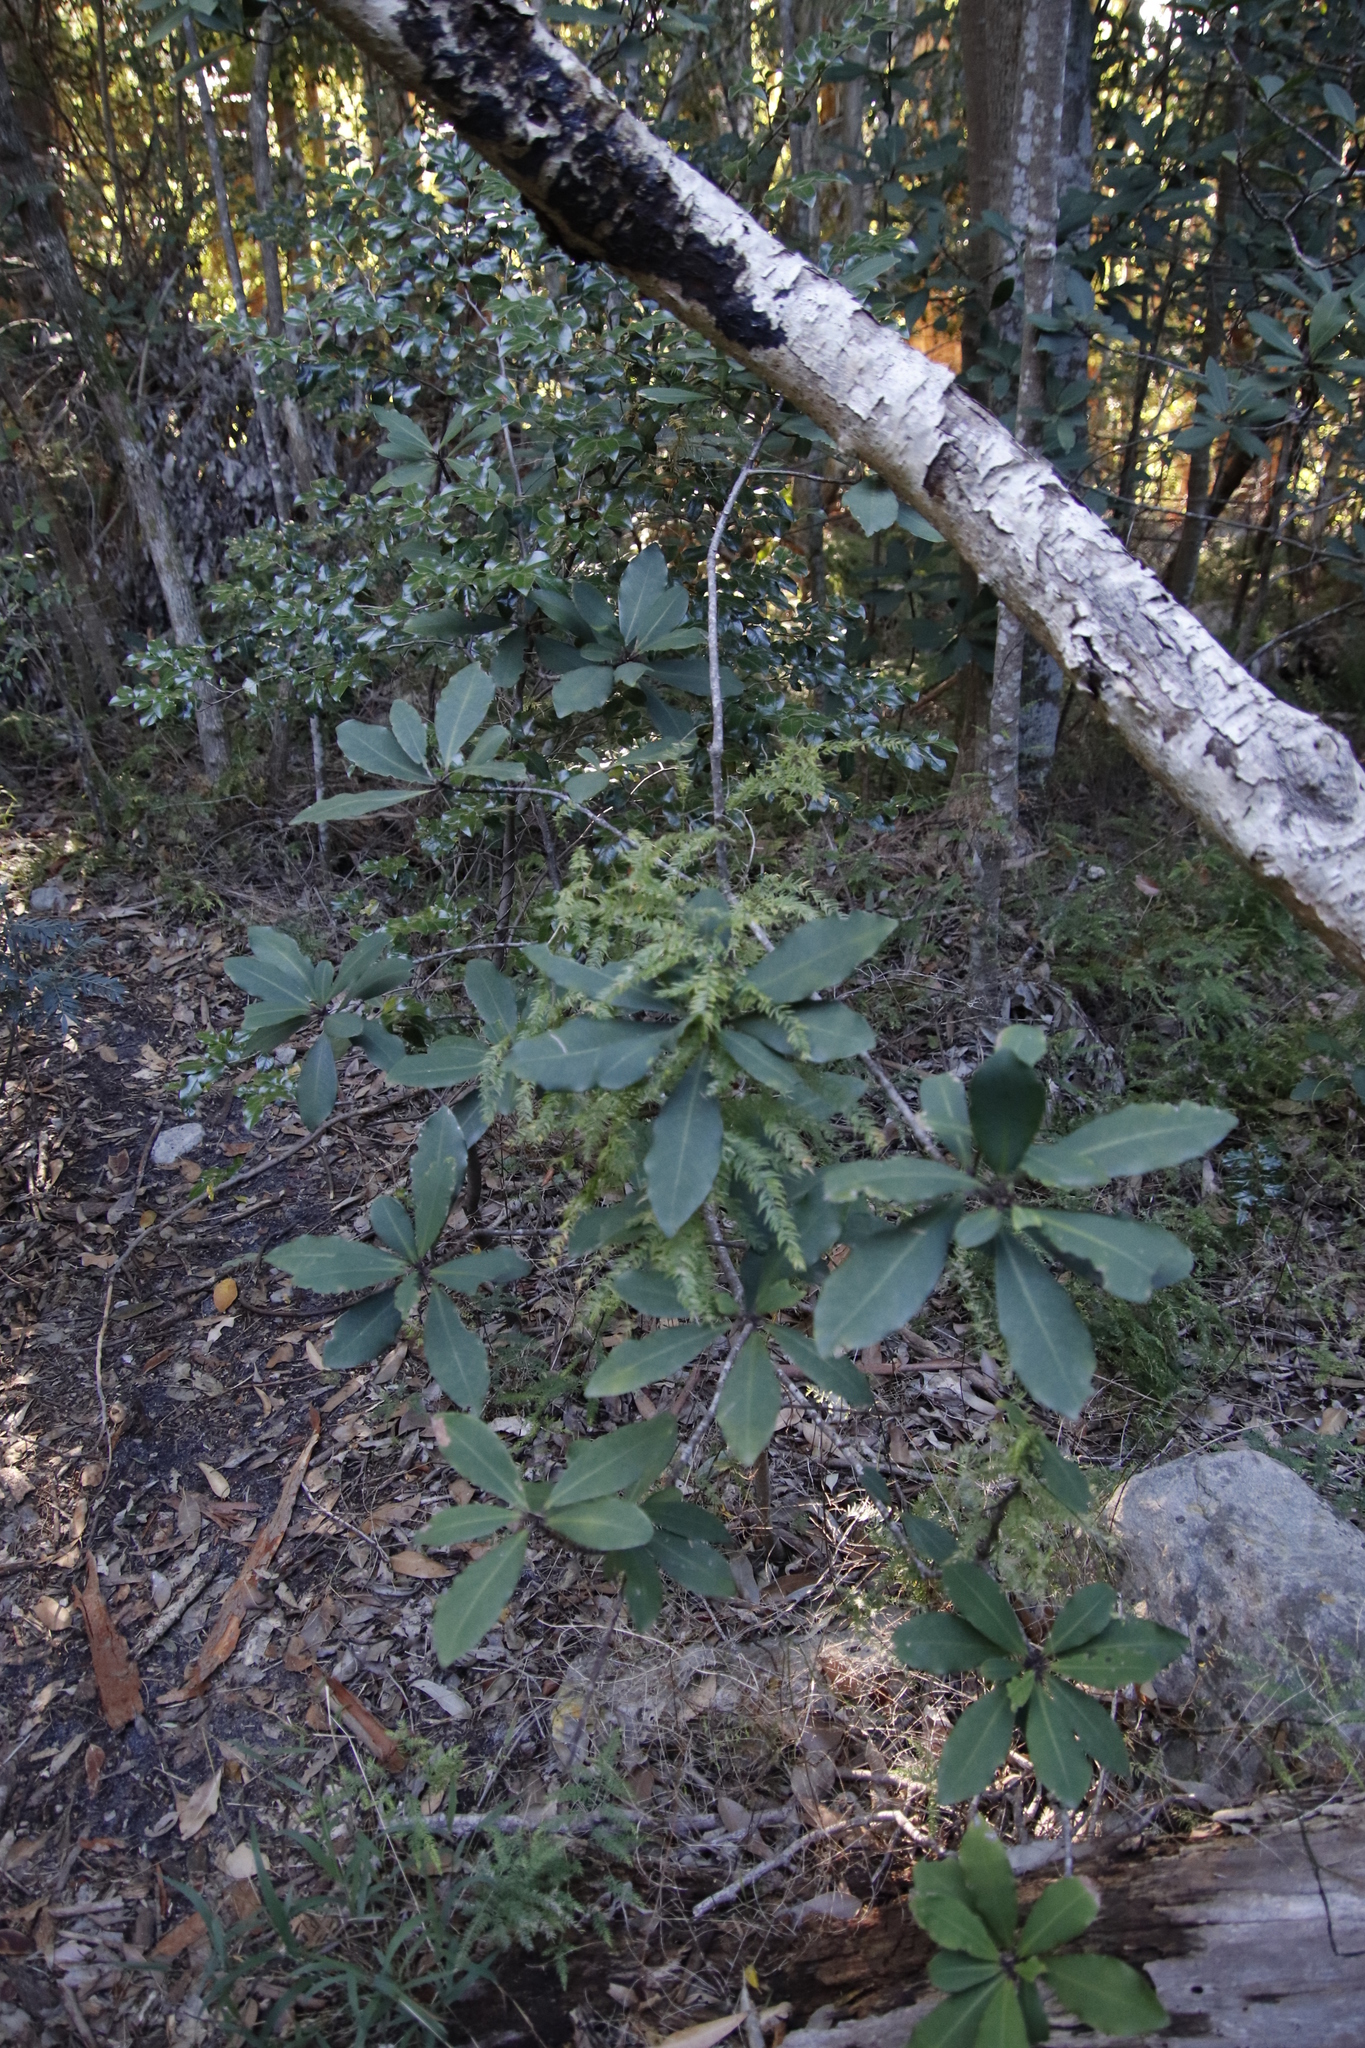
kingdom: Plantae
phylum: Tracheophyta
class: Liliopsida
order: Asparagales
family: Asparagaceae
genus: Asparagus
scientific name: Asparagus scandens
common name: Asparagus-fern
